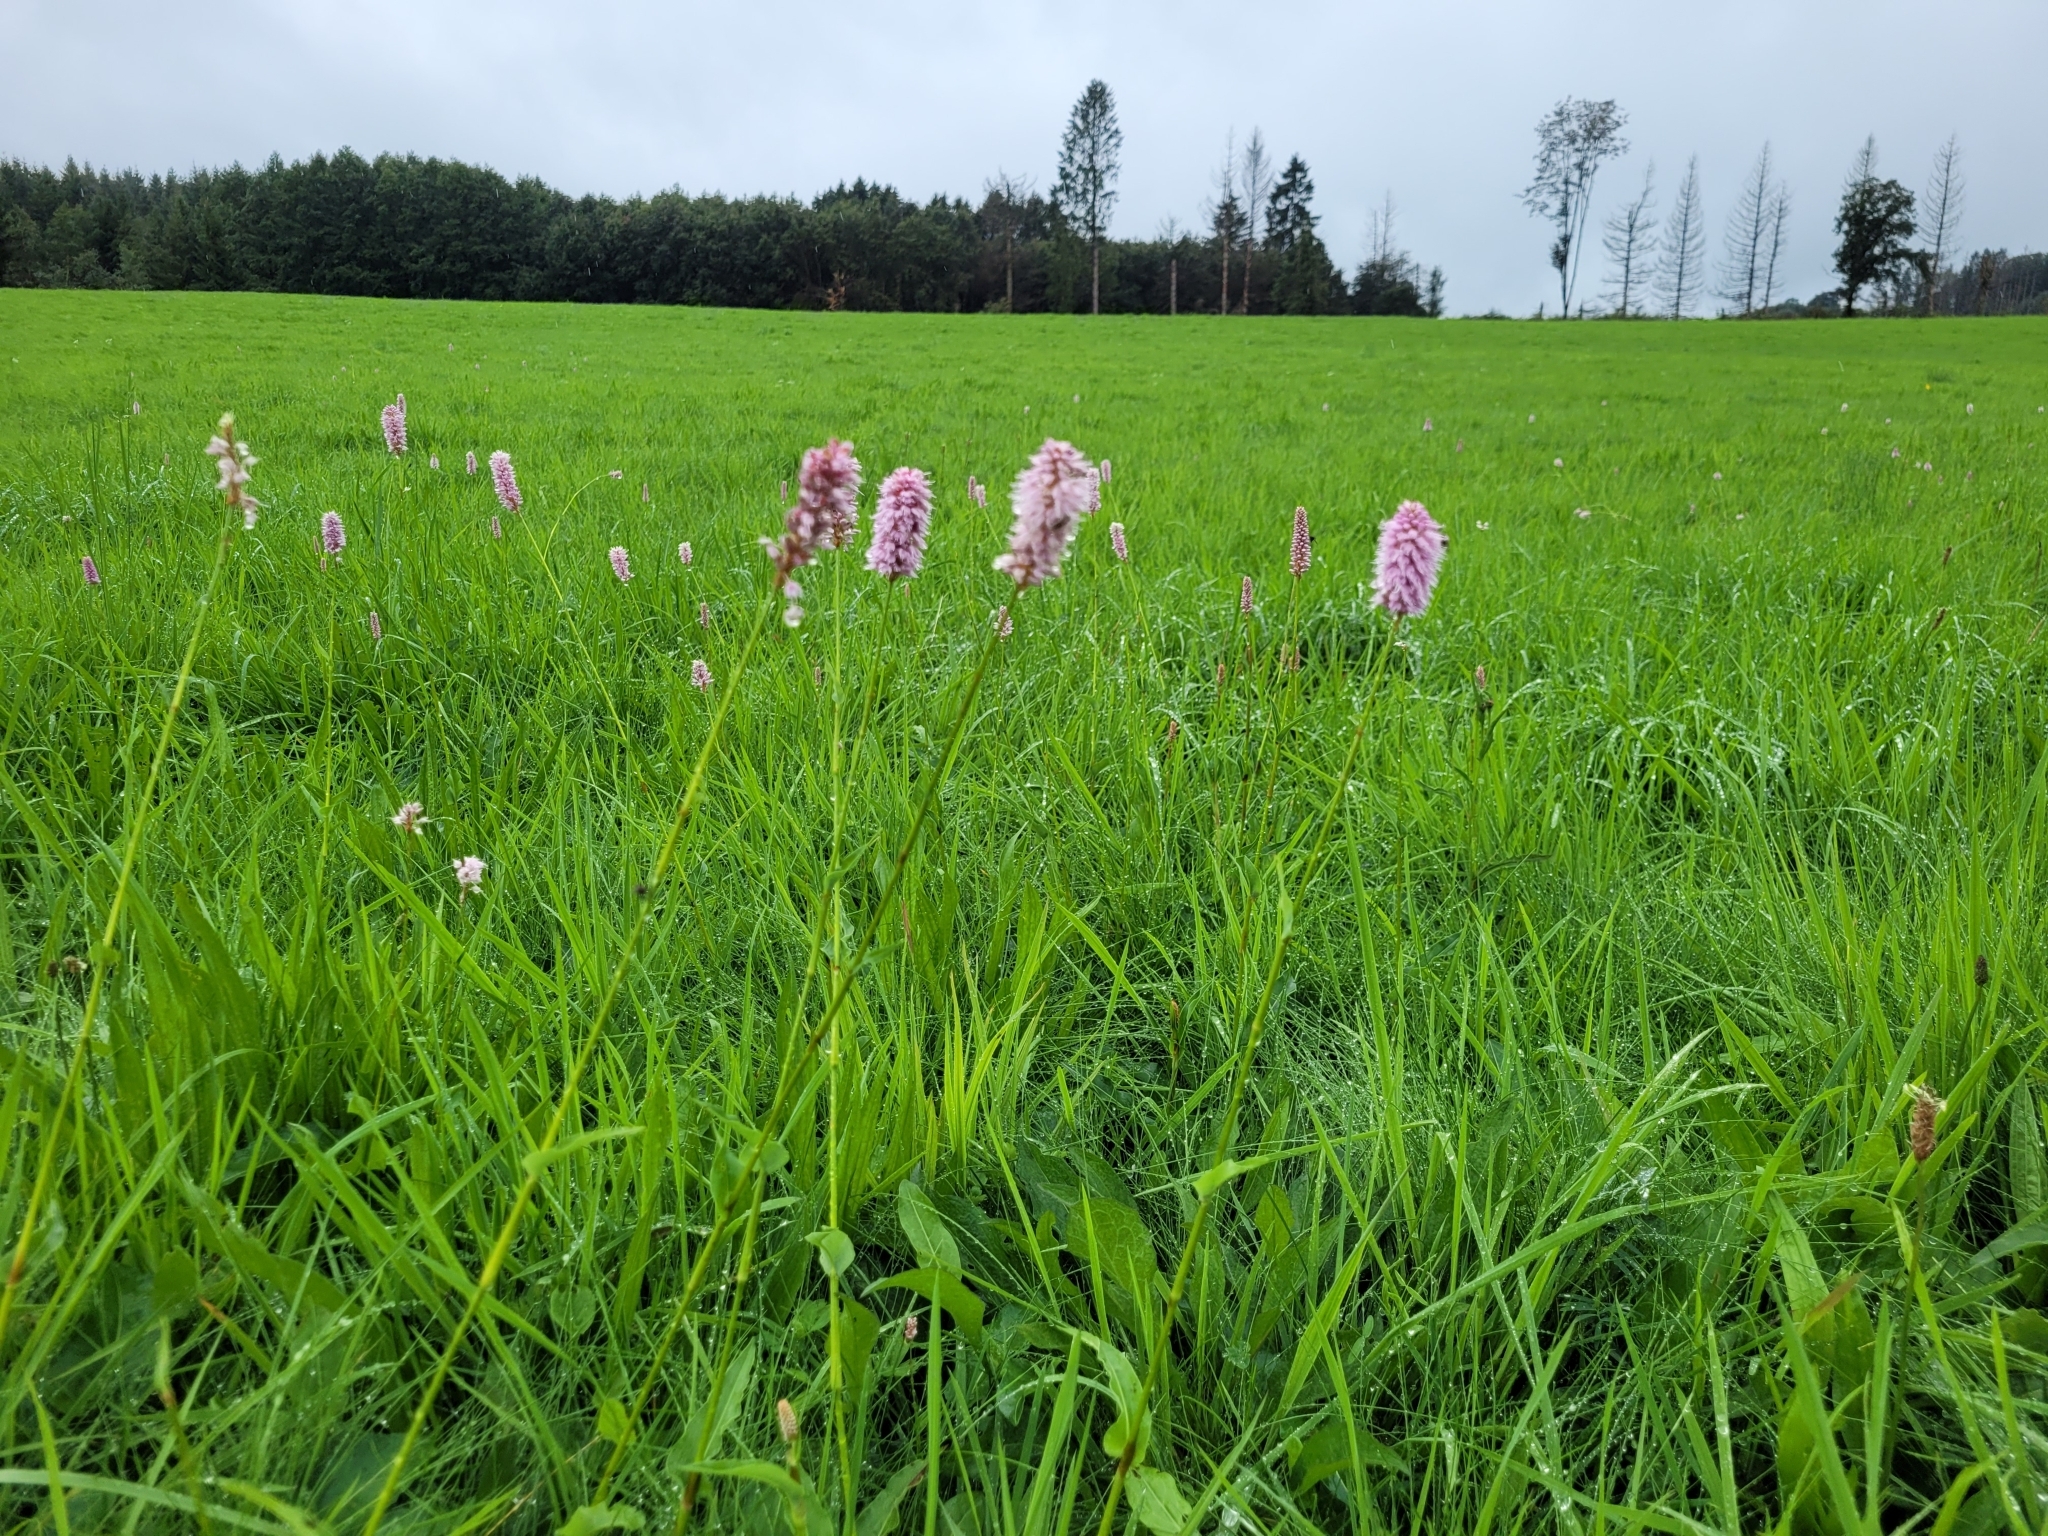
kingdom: Plantae
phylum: Tracheophyta
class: Magnoliopsida
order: Caryophyllales
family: Polygonaceae
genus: Bistorta
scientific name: Bistorta officinalis
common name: Common bistort
